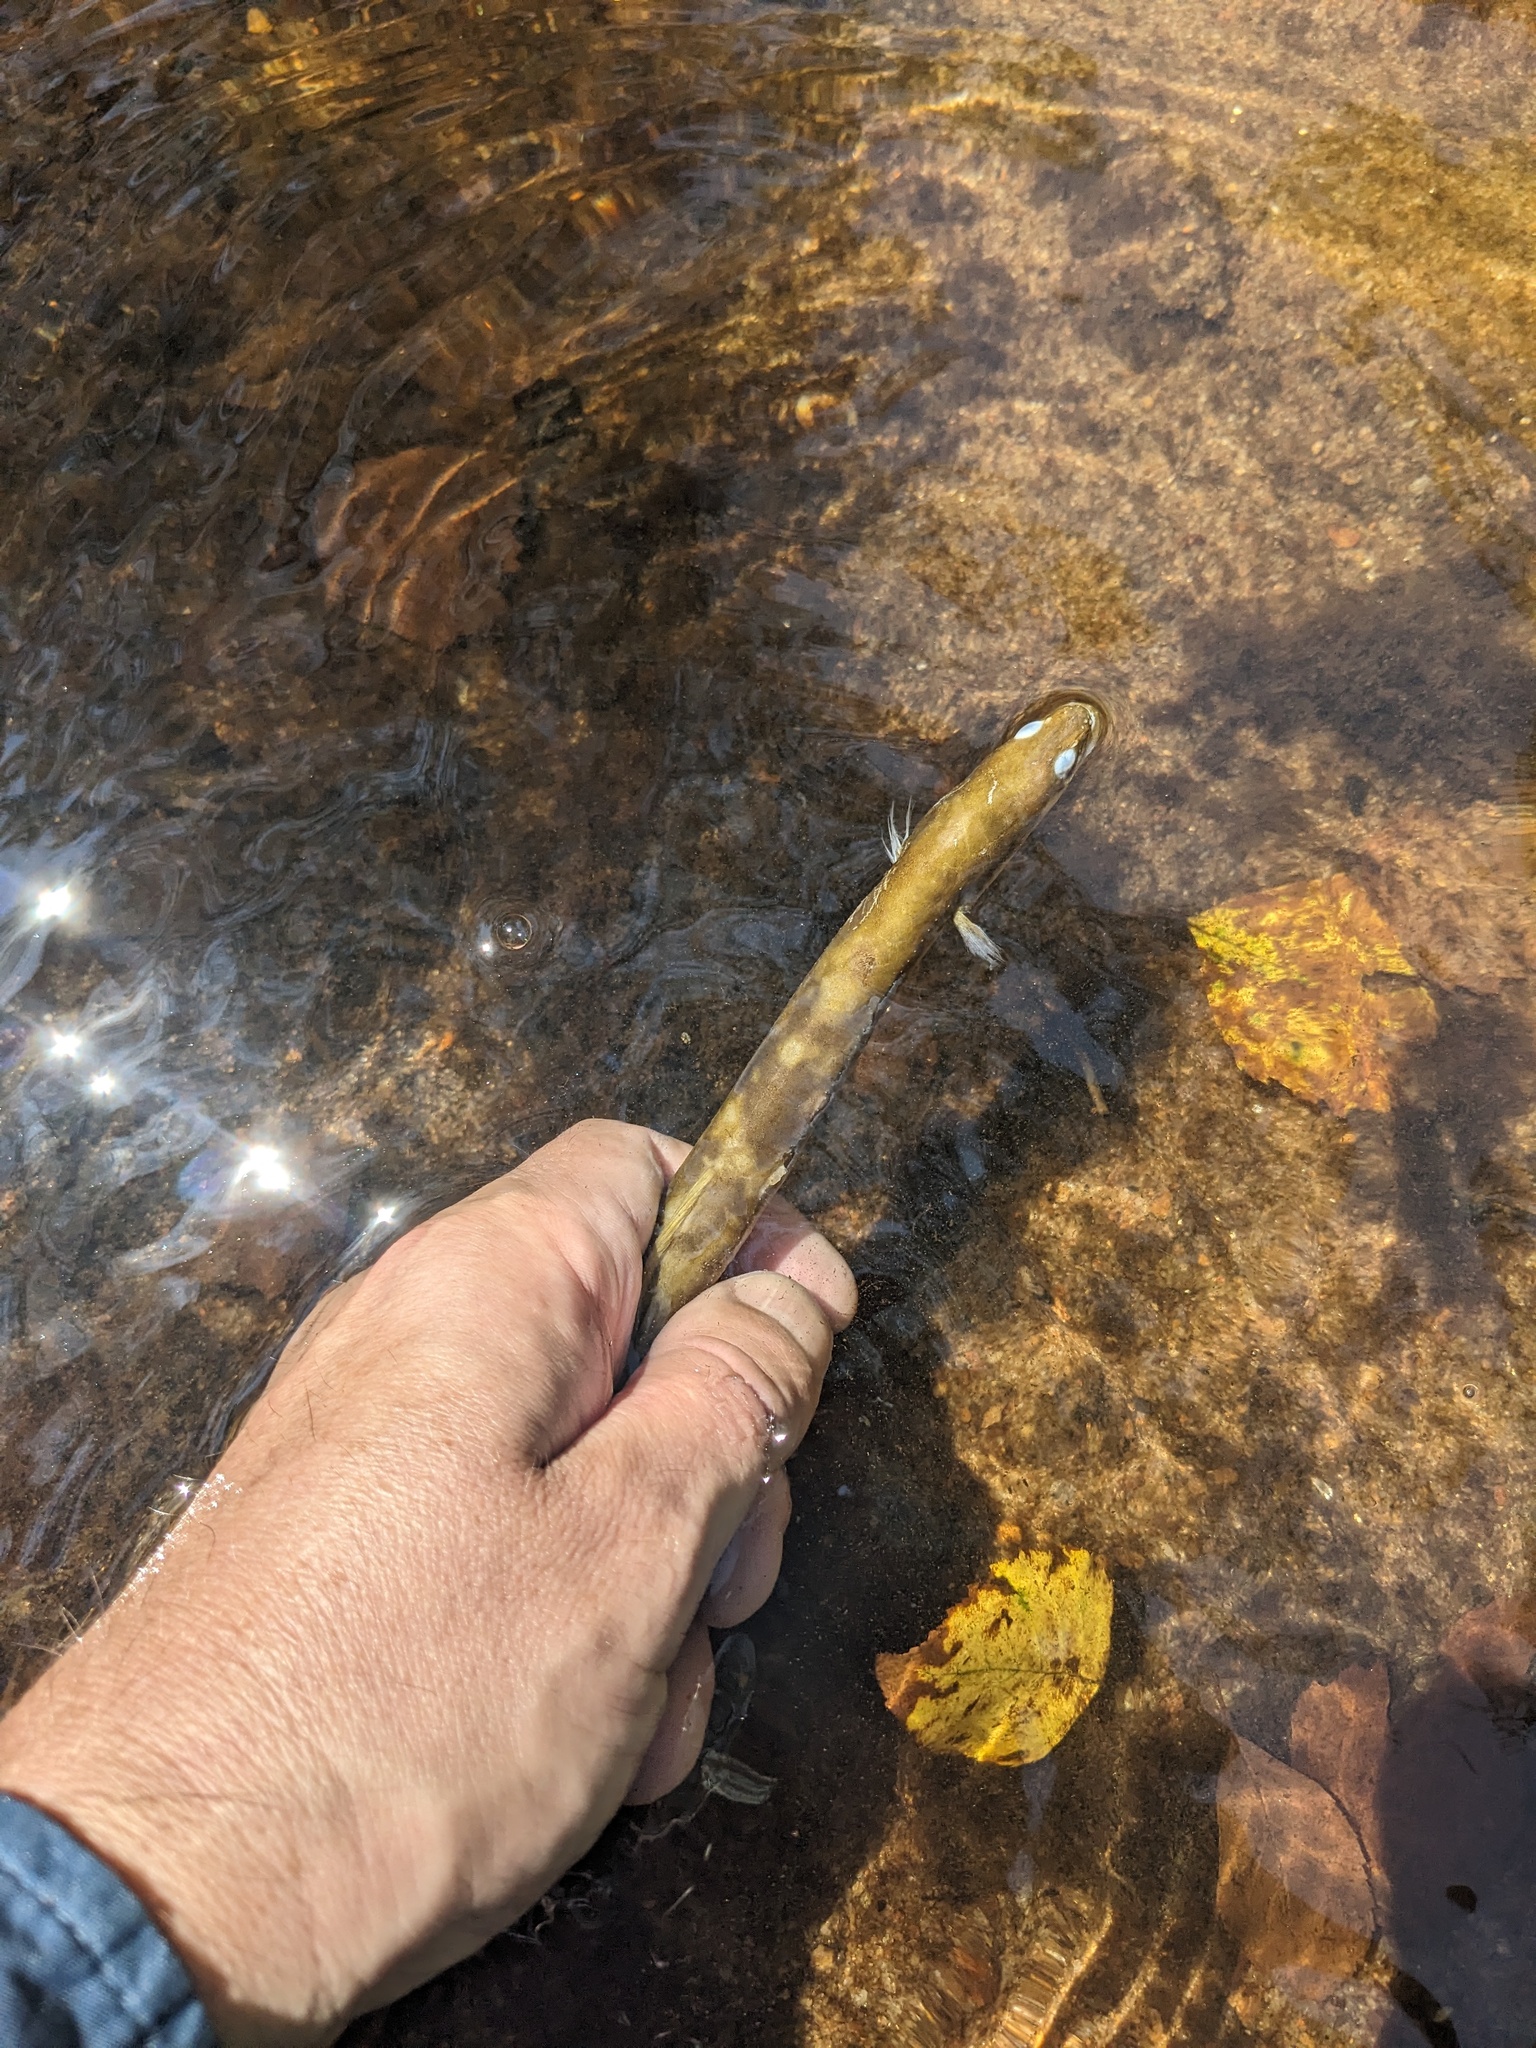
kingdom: Animalia
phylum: Chordata
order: Anguilliformes
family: Anguillidae
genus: Anguilla
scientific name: Anguilla rostrata
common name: American eel
